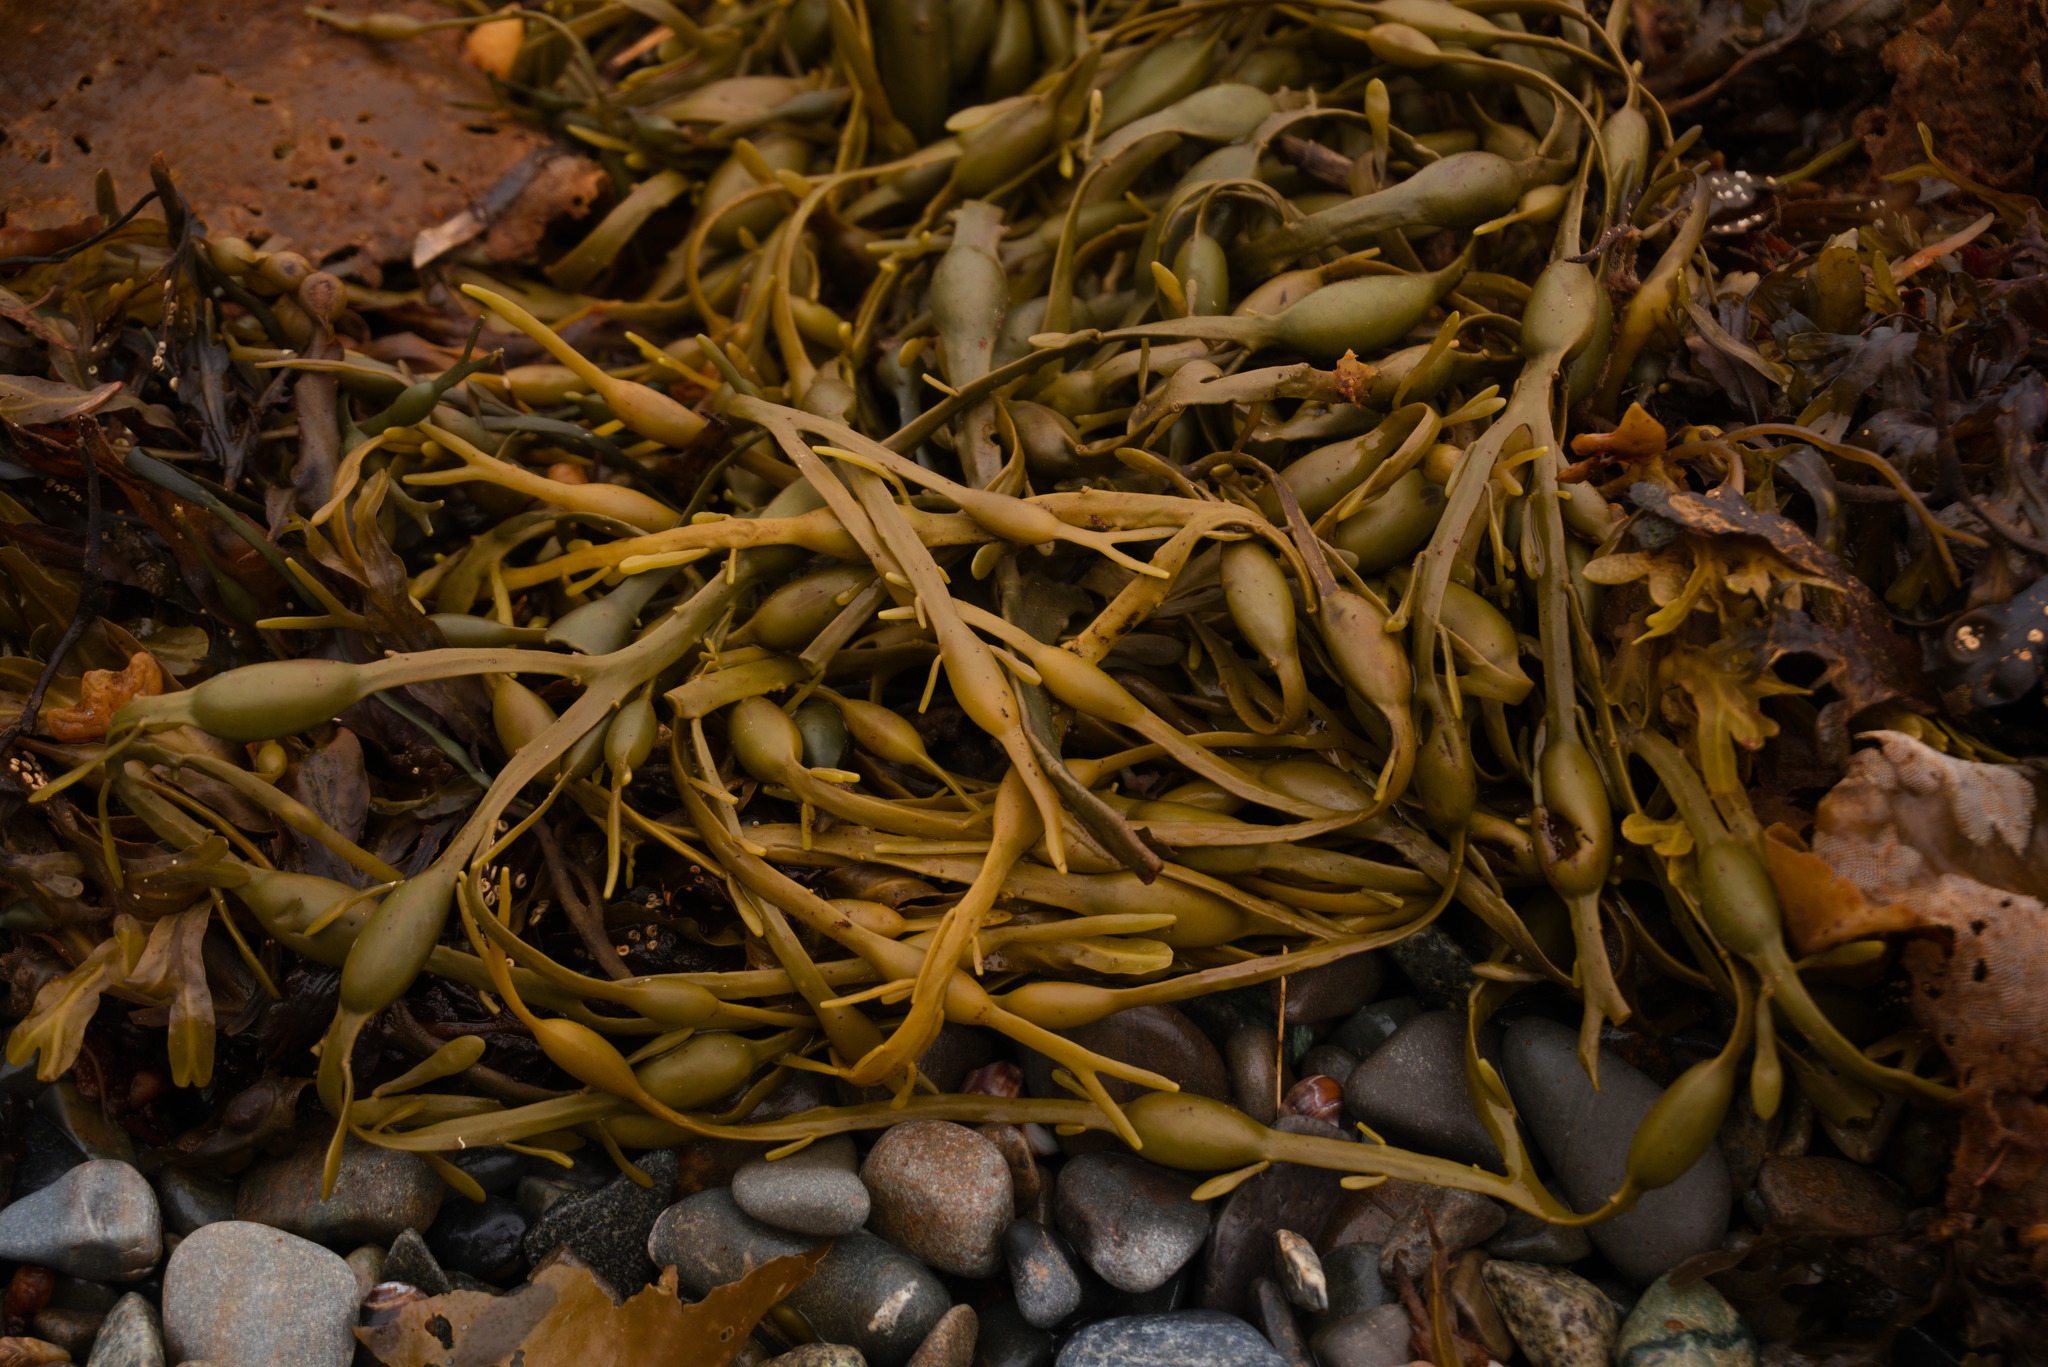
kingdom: Chromista
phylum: Ochrophyta
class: Phaeophyceae
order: Fucales
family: Fucaceae
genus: Ascophyllum
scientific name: Ascophyllum nodosum
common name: Knotted wrack
